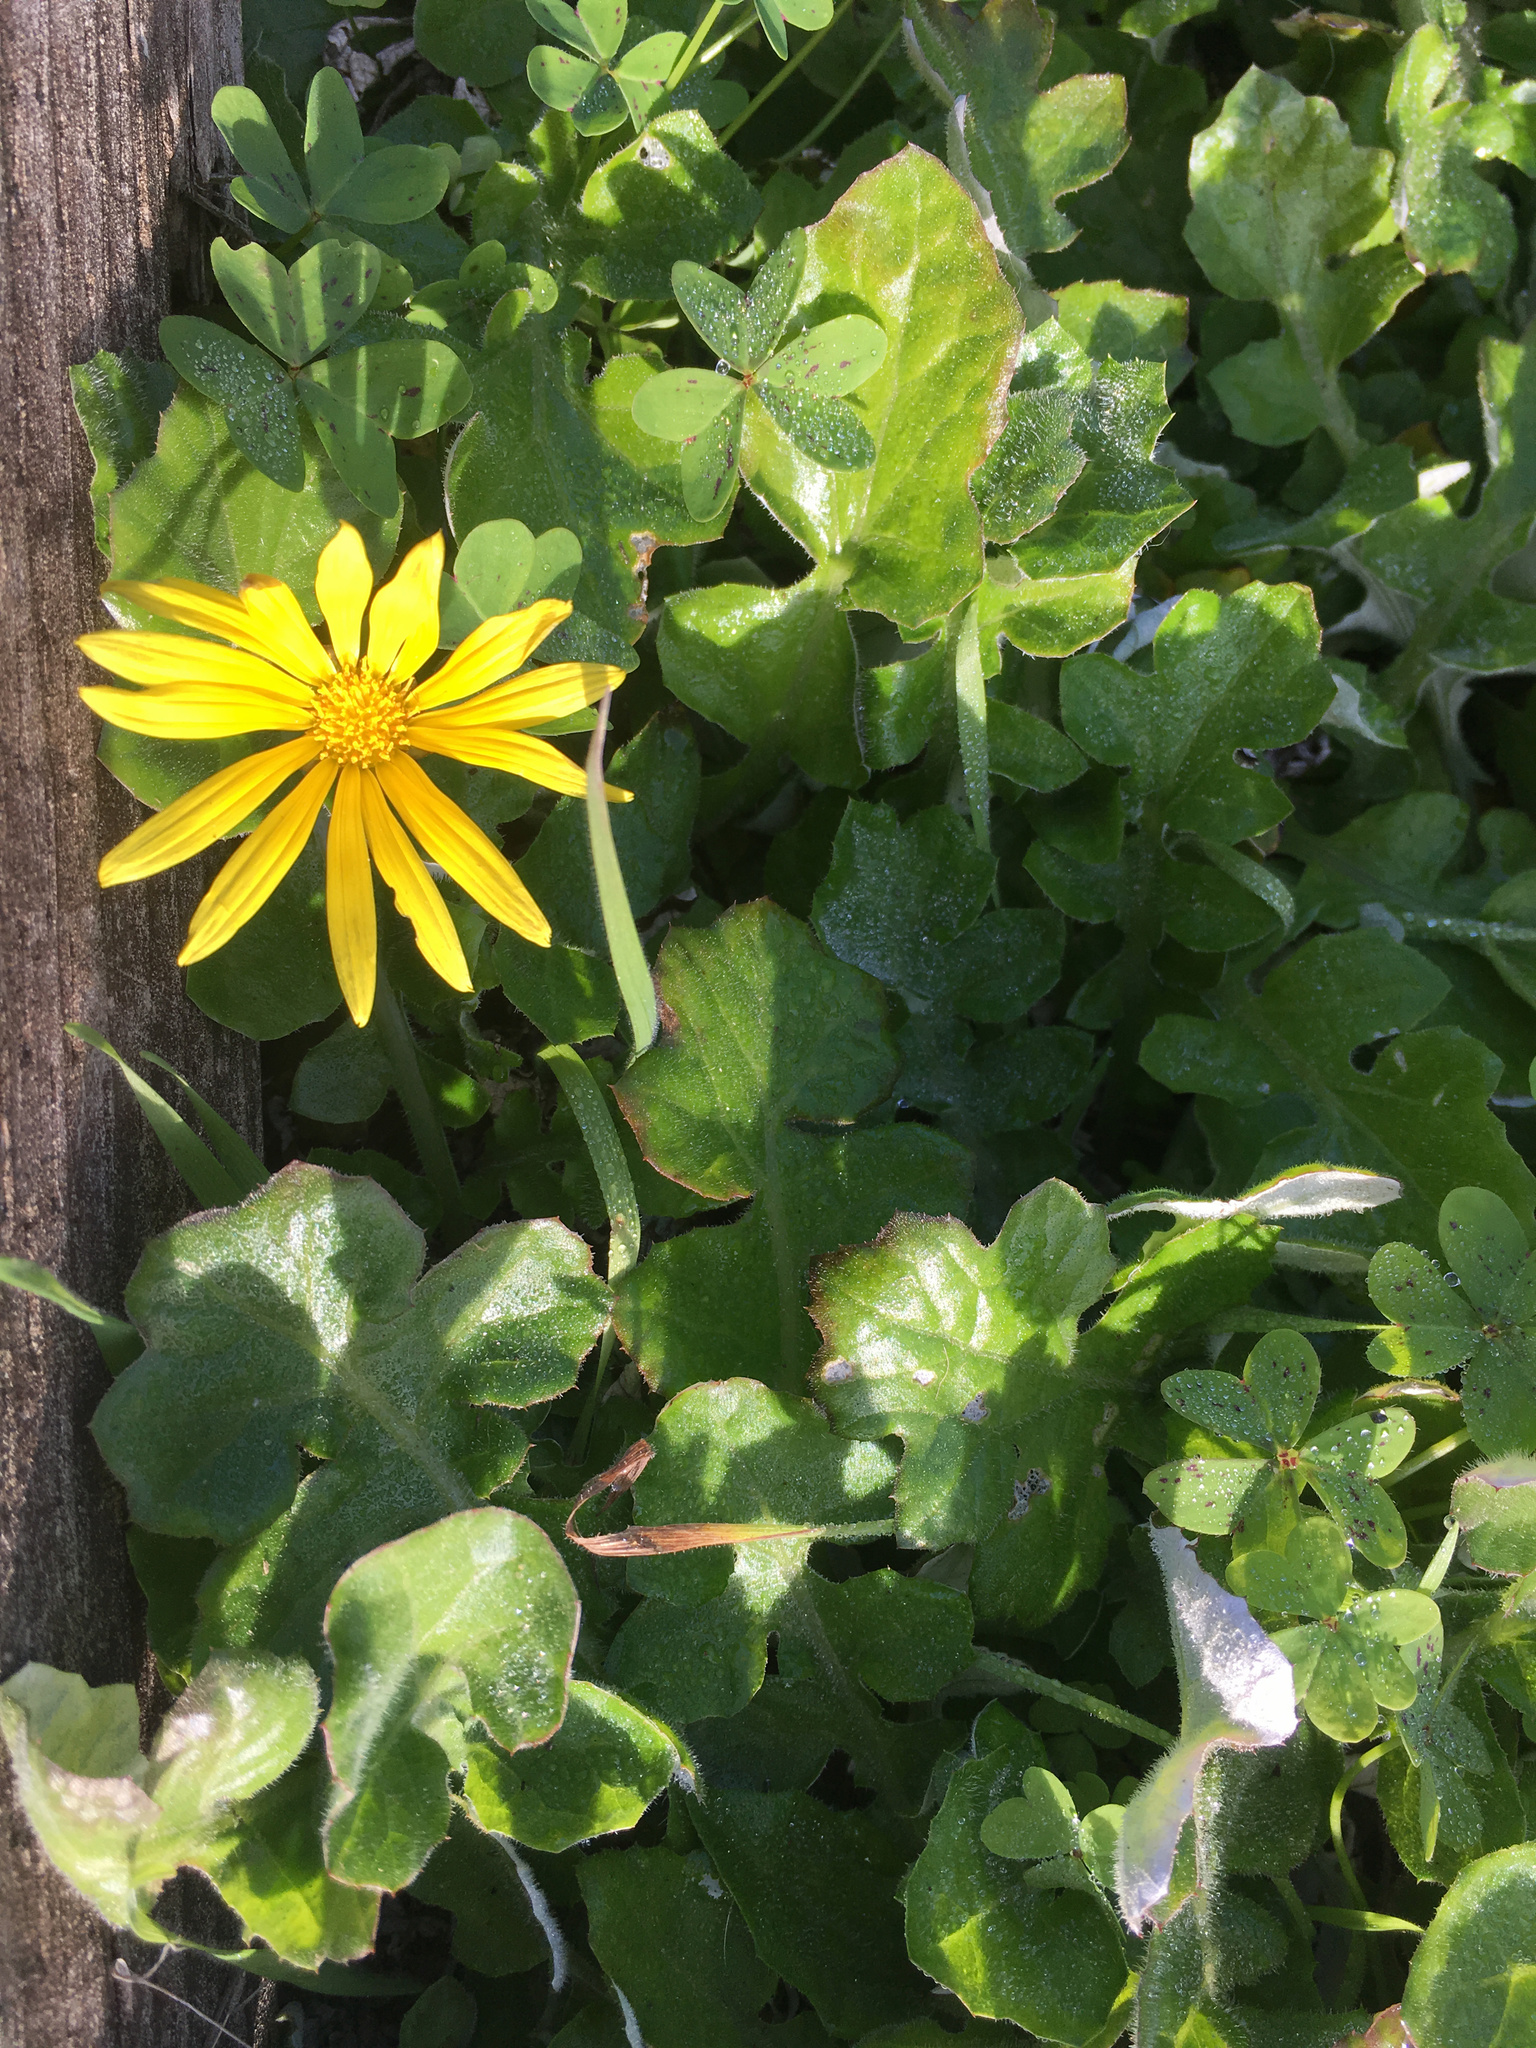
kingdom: Plantae
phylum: Tracheophyta
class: Magnoliopsida
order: Asterales
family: Asteraceae
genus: Arctotheca
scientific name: Arctotheca prostrata
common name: Capeweed
